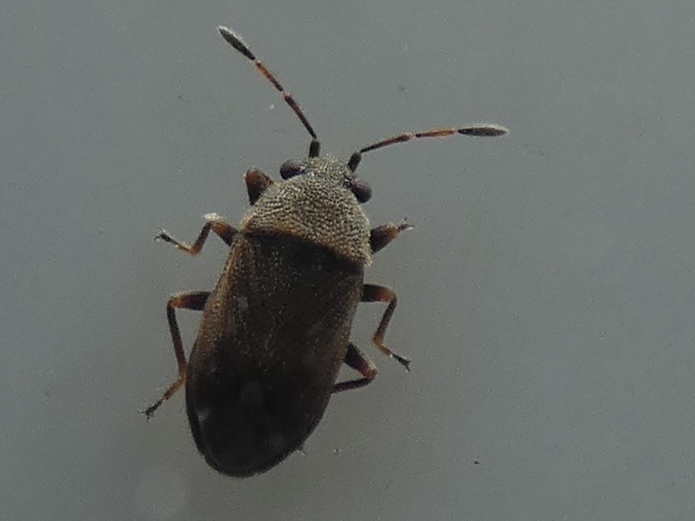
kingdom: Animalia
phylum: Arthropoda
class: Insecta
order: Hemiptera
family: Rhyparochromidae
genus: Stygnocoris
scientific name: Stygnocoris fuligineus
